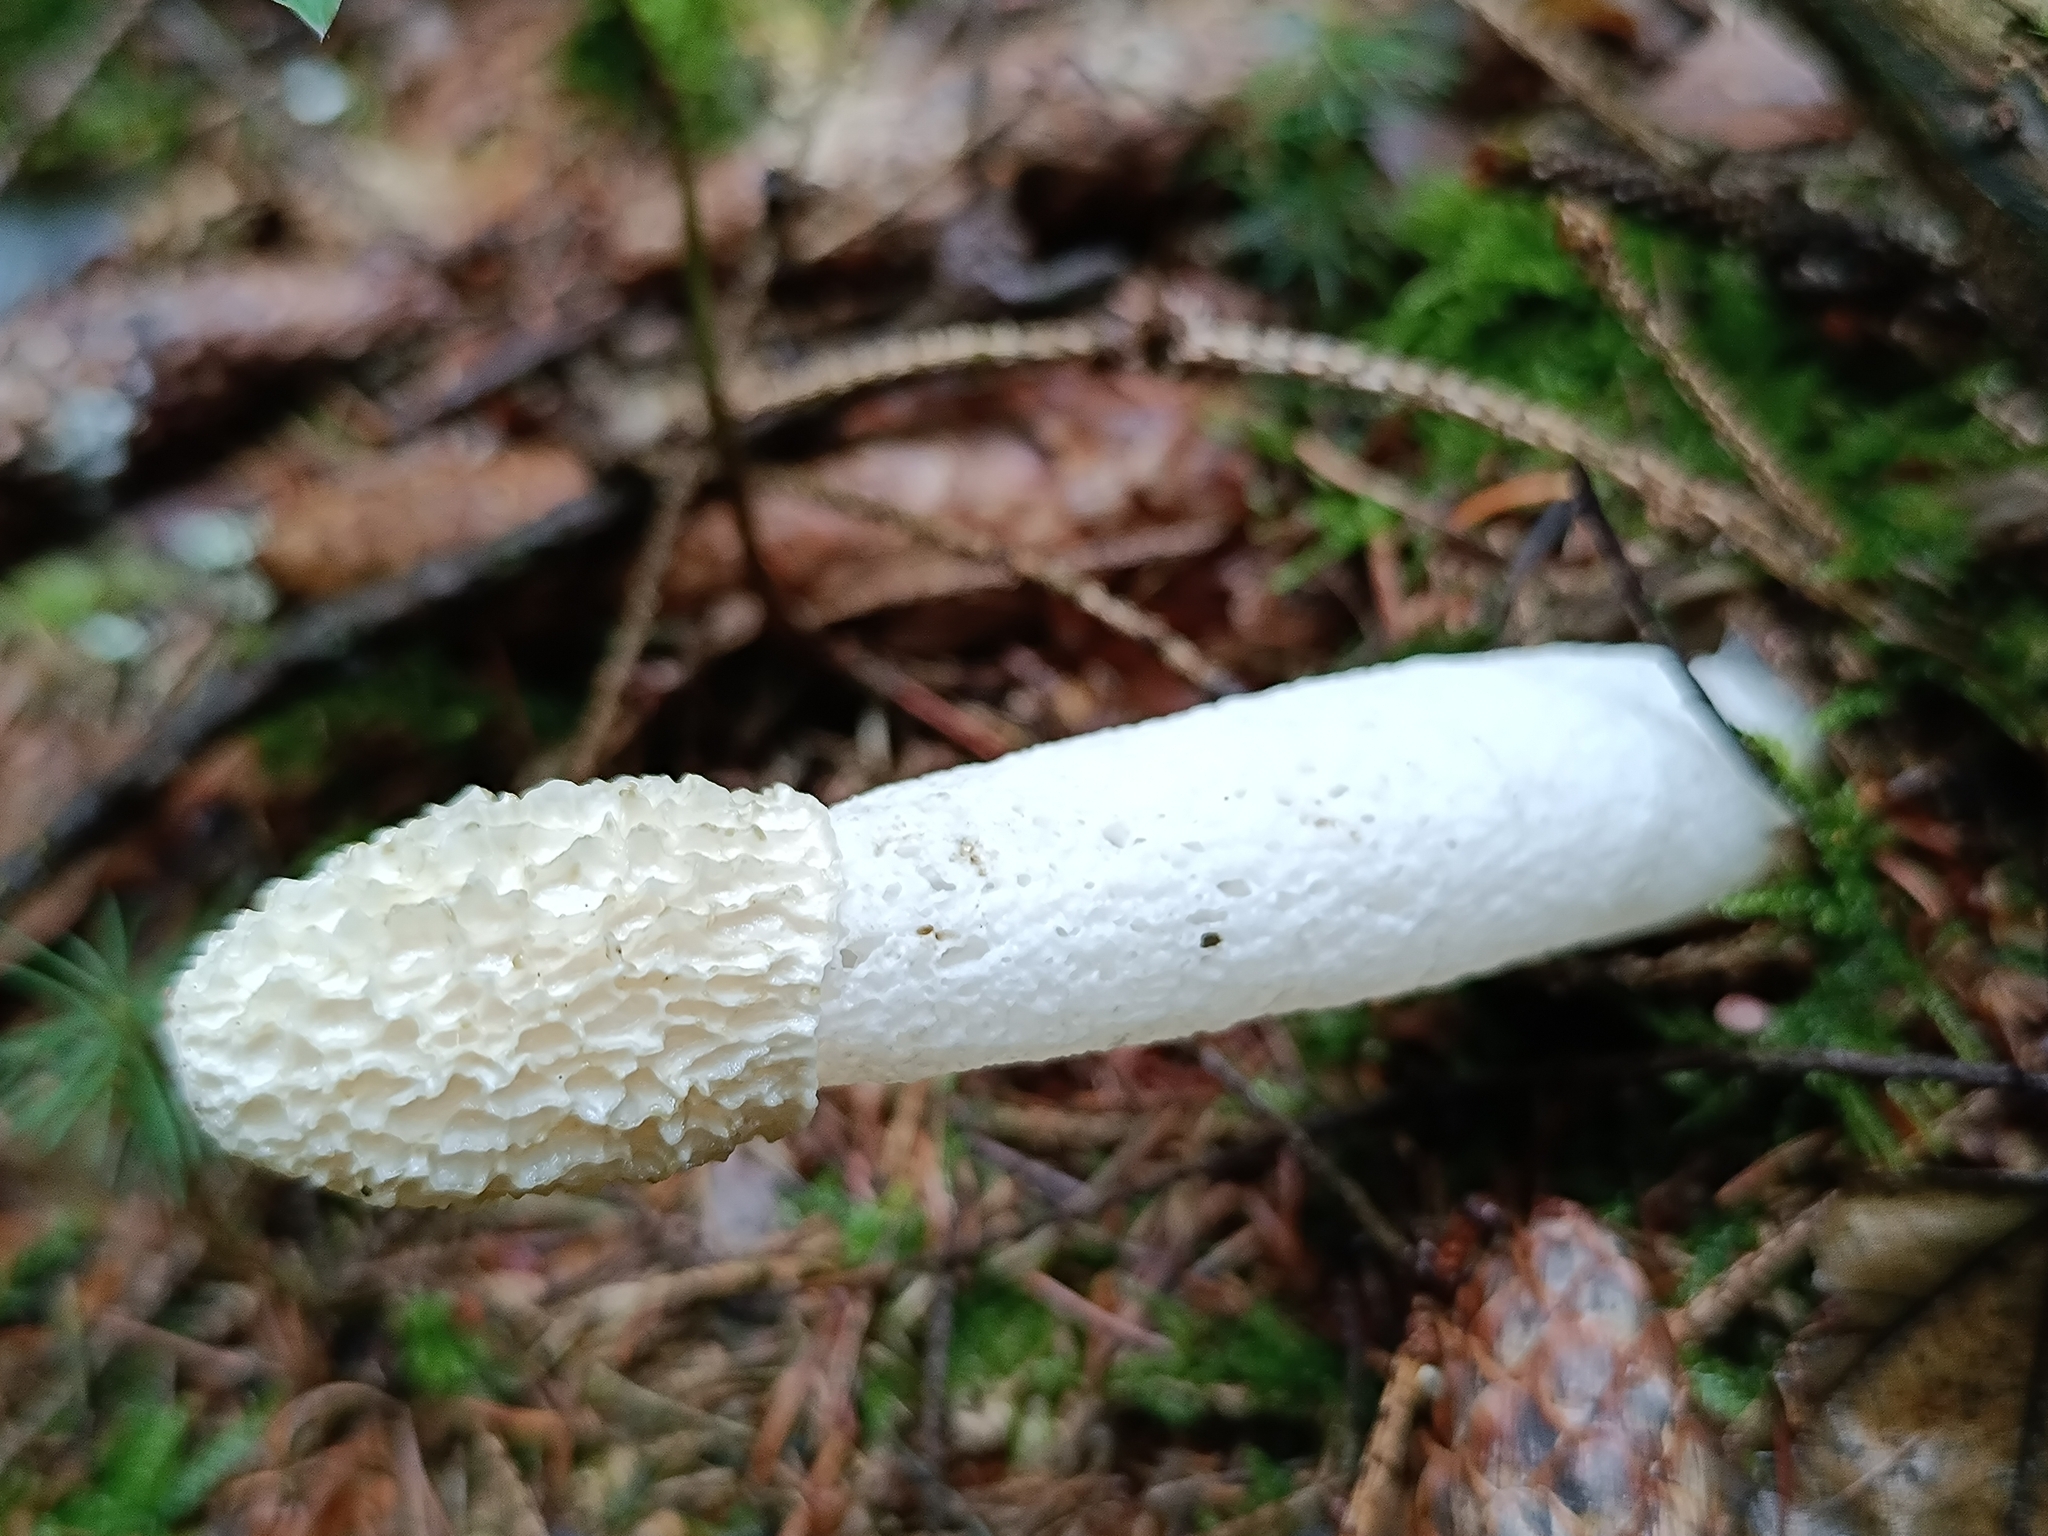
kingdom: Fungi
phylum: Basidiomycota
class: Agaricomycetes
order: Phallales
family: Phallaceae
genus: Phallus
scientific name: Phallus impudicus
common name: Common stinkhorn
